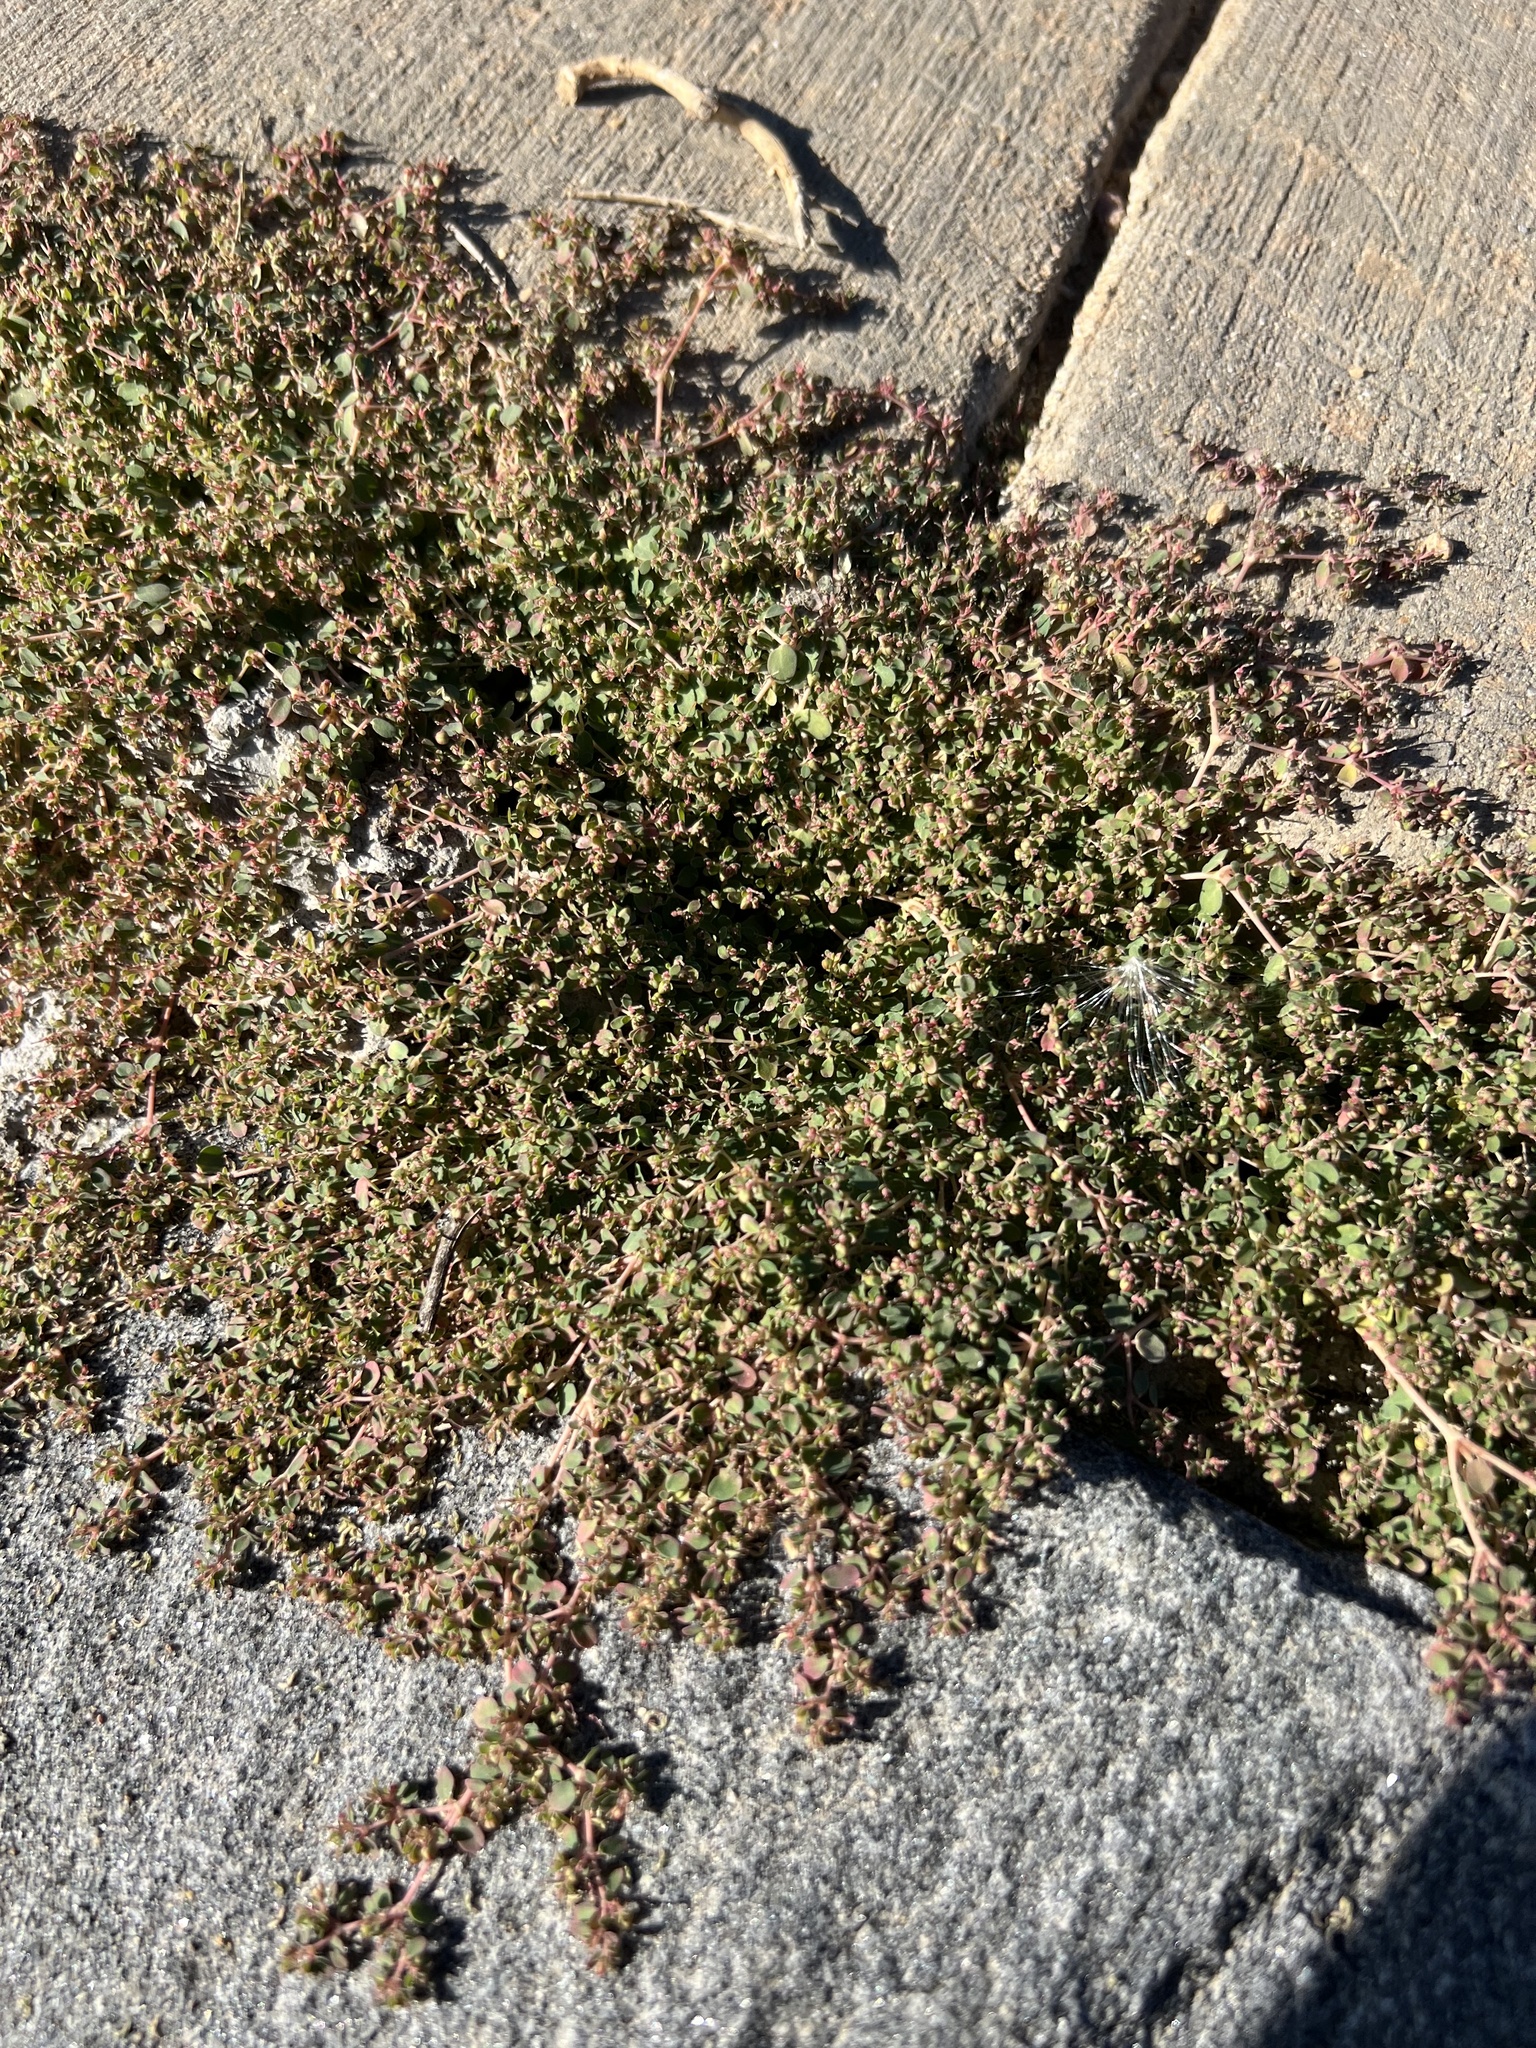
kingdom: Plantae
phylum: Tracheophyta
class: Magnoliopsida
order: Malpighiales
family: Euphorbiaceae
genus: Euphorbia
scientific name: Euphorbia serpens
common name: Matted sandmat
